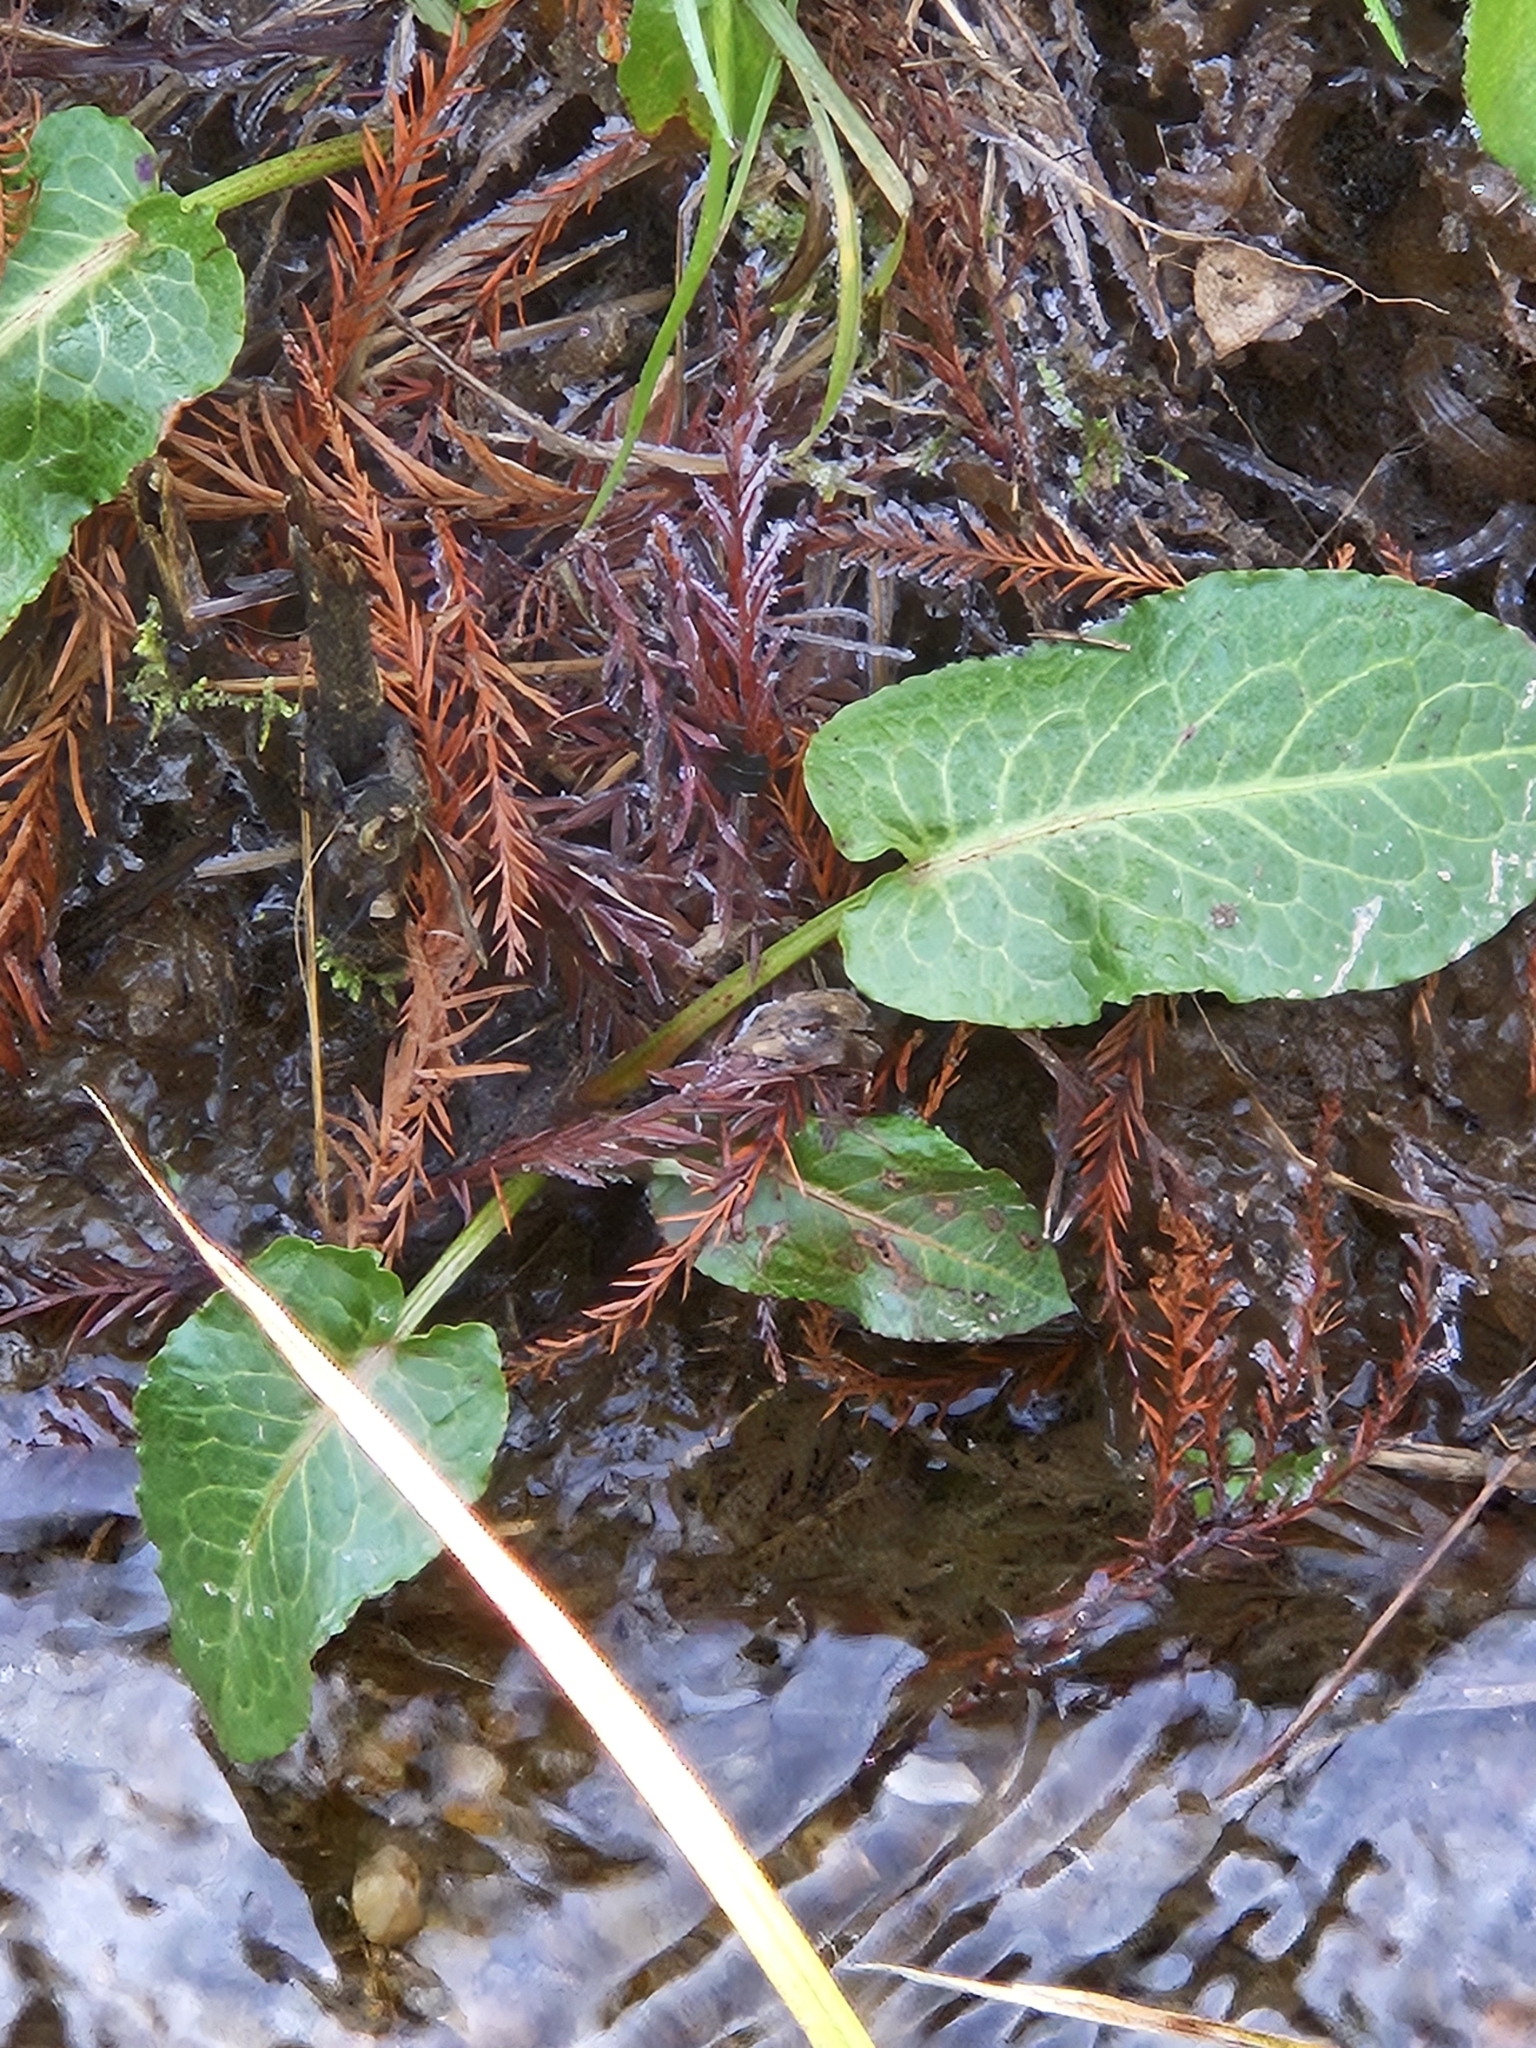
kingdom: Plantae
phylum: Tracheophyta
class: Magnoliopsida
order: Caryophyllales
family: Polygonaceae
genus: Rumex
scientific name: Rumex obtusifolius
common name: Bitter dock
